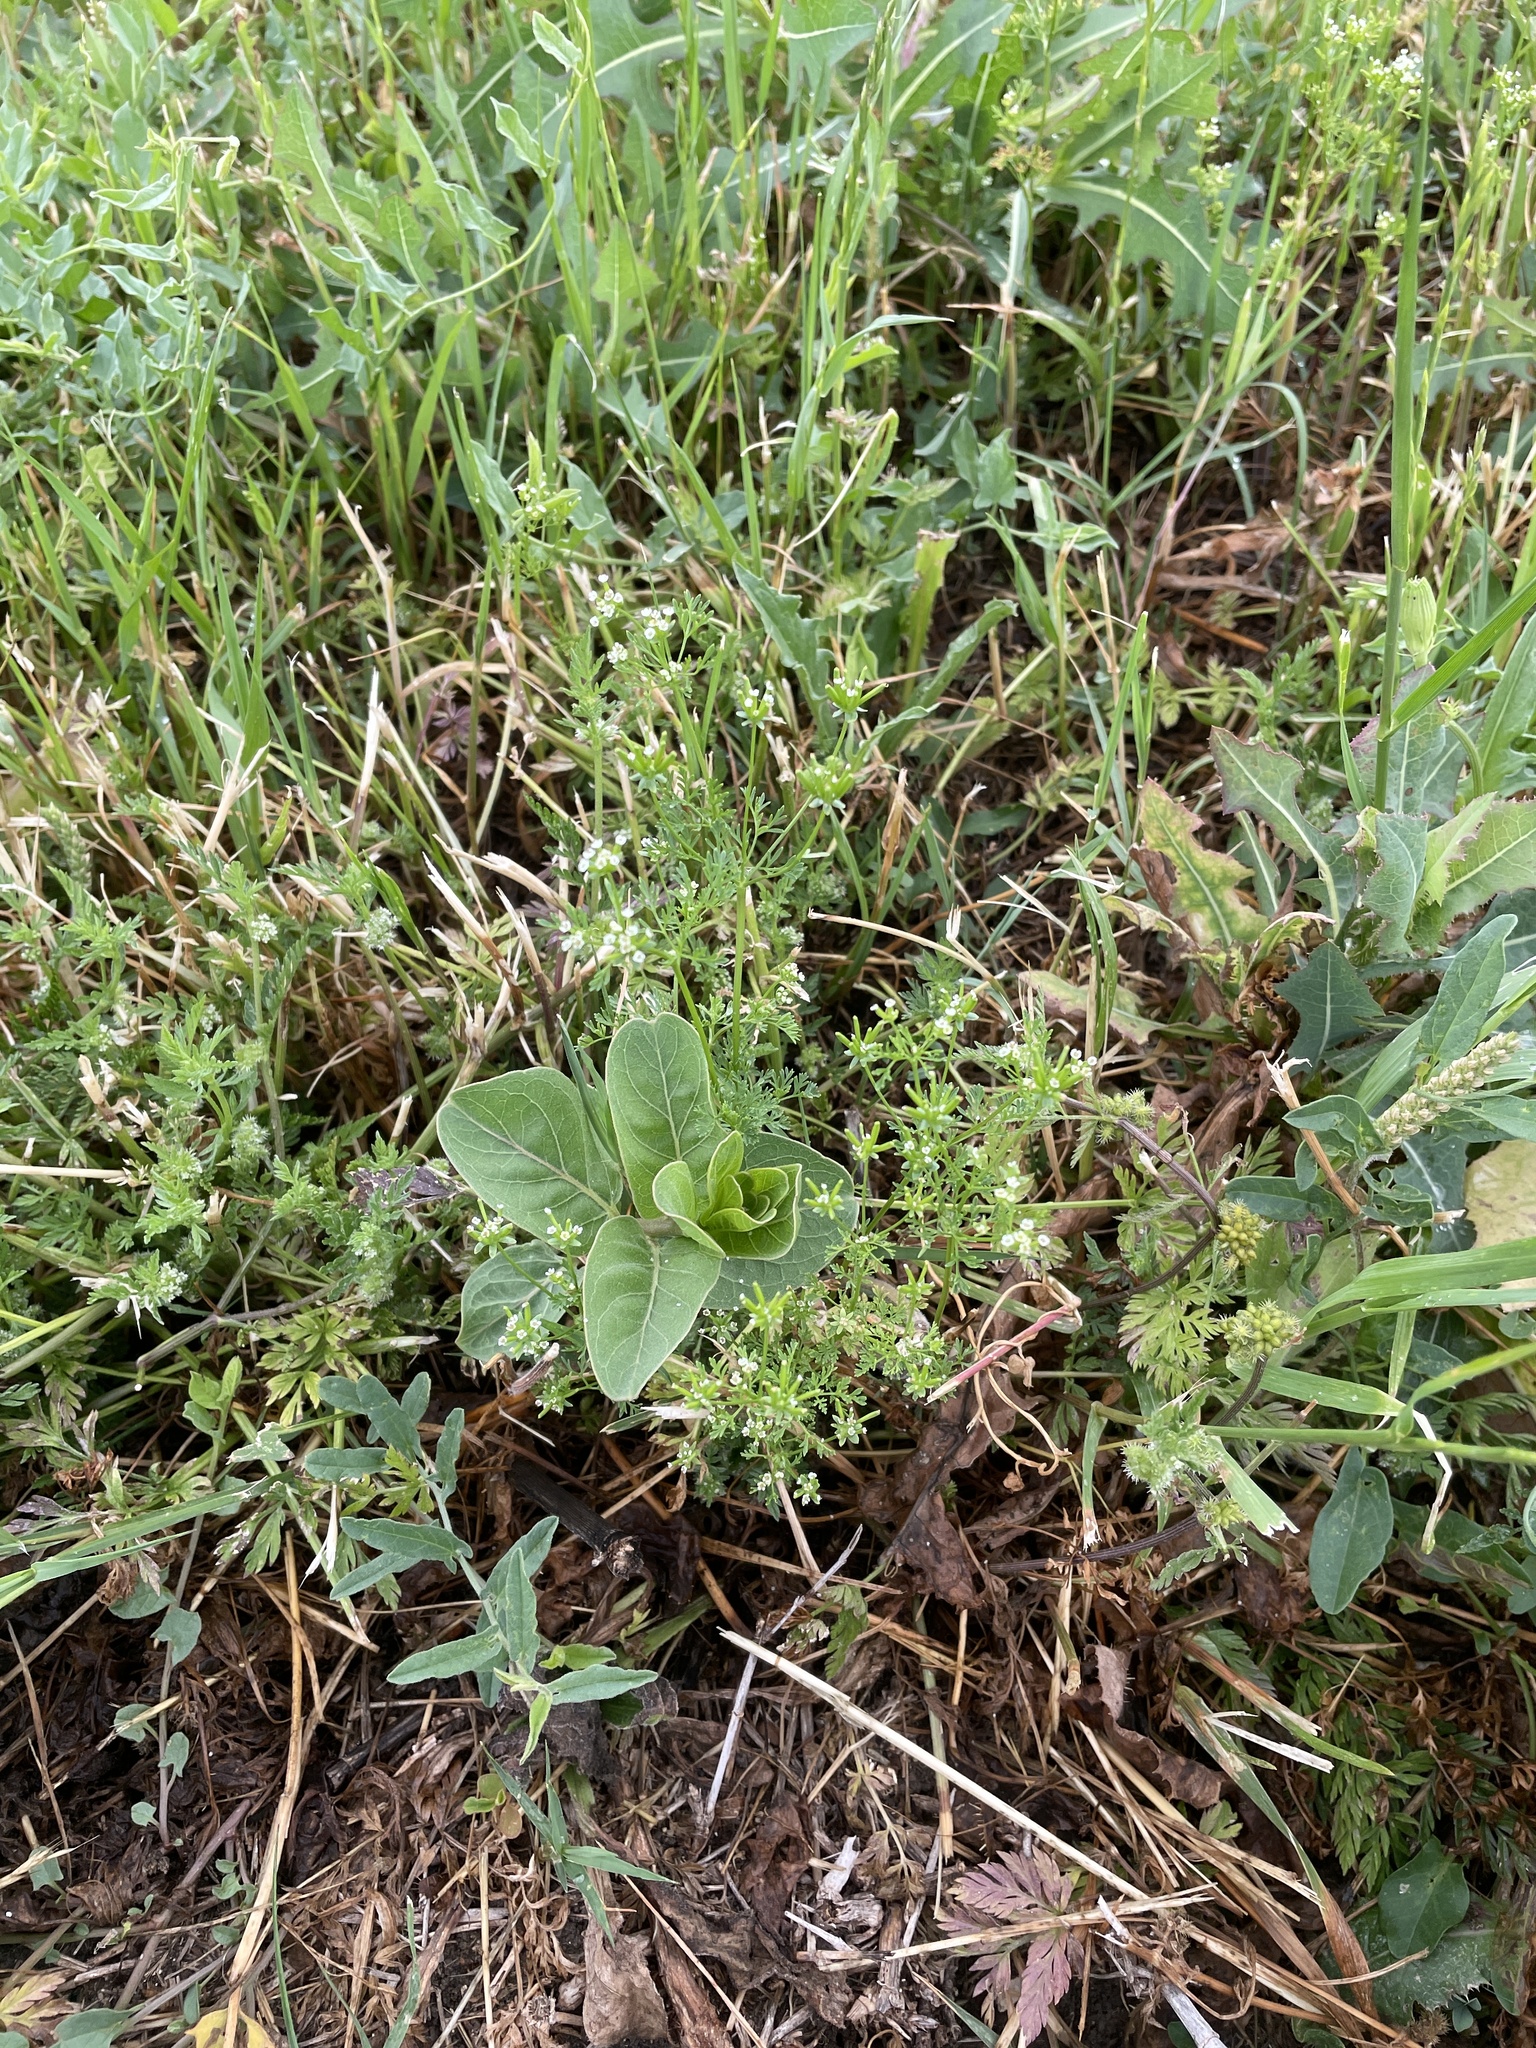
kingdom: Plantae
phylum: Tracheophyta
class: Magnoliopsida
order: Apiales
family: Apiaceae
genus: Chaerophyllum
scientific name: Chaerophyllum tainturieri
